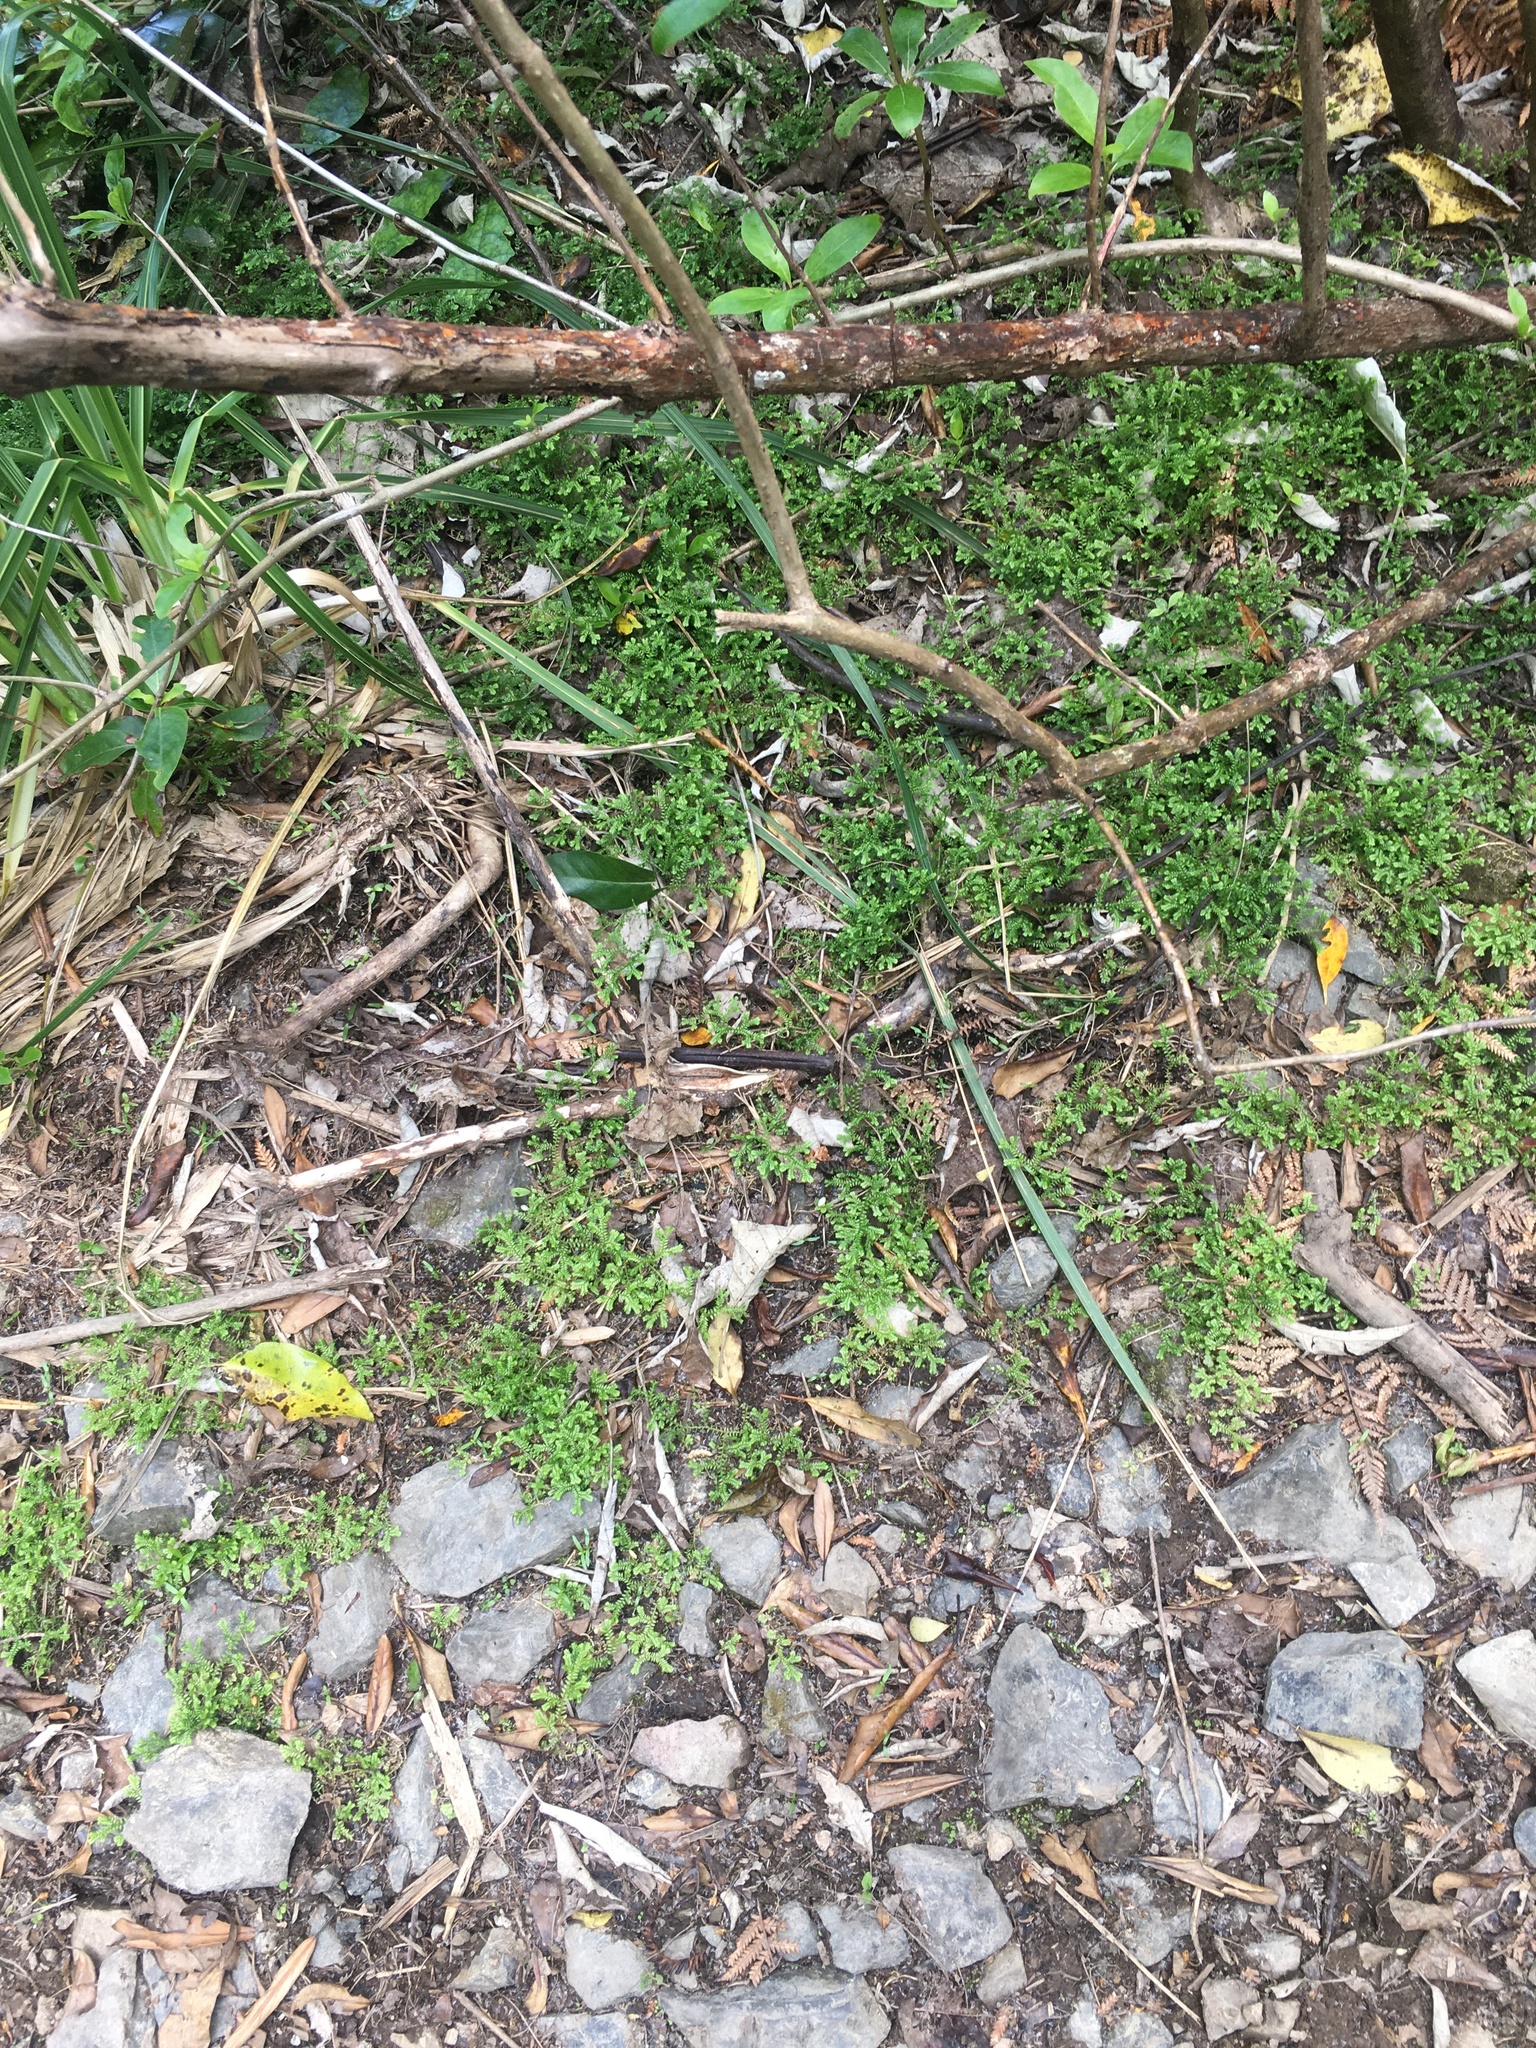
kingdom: Plantae
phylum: Tracheophyta
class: Lycopodiopsida
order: Selaginellales
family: Selaginellaceae
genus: Selaginella
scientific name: Selaginella kraussiana
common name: Krauss' spikemoss
